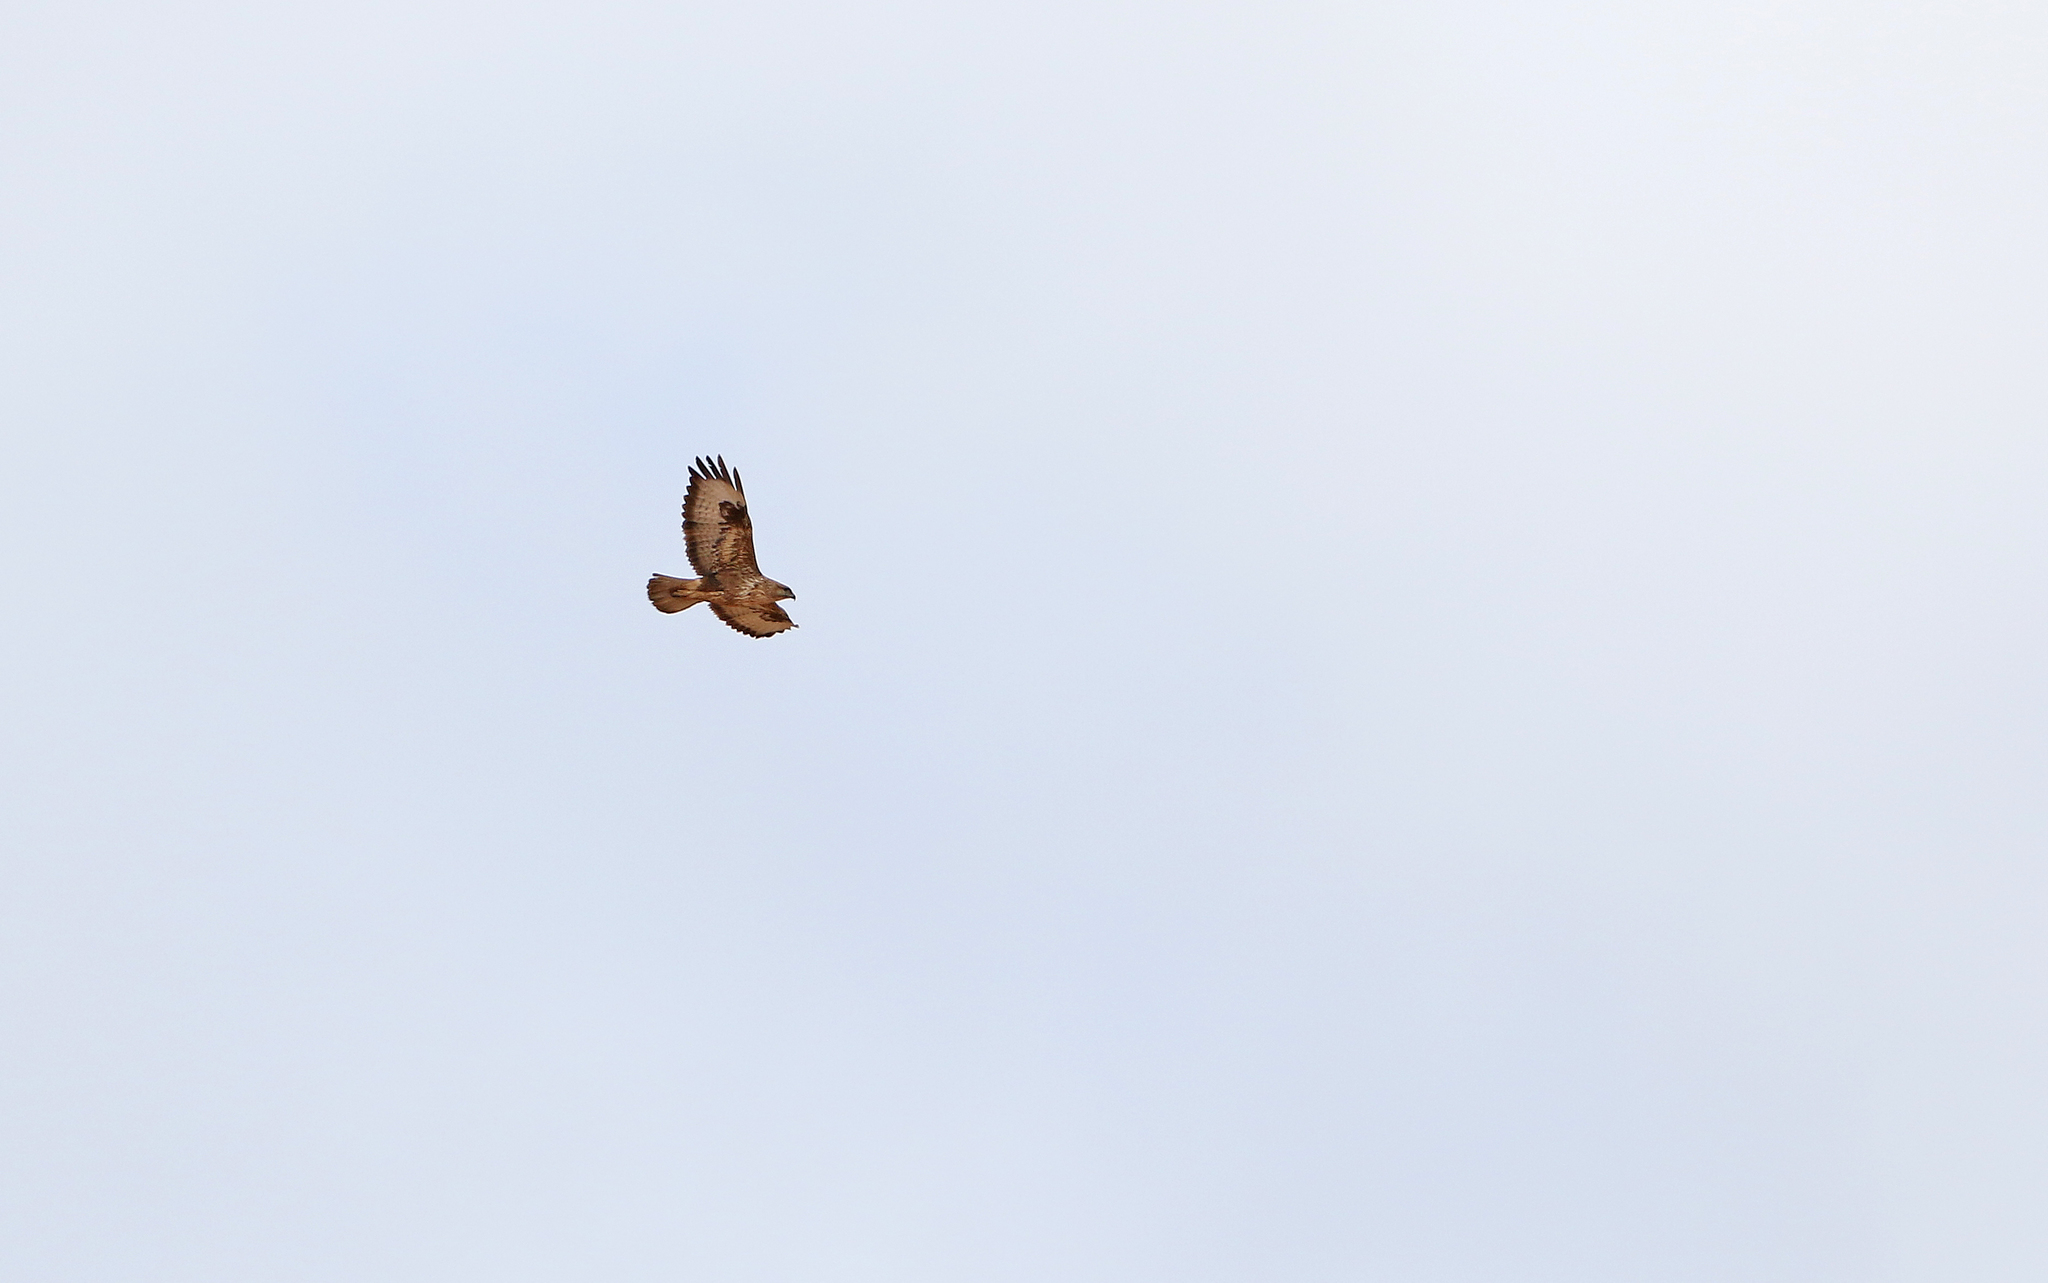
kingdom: Animalia
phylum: Chordata
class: Aves
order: Accipitriformes
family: Accipitridae
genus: Buteo
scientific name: Buteo buteo
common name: Common buzzard
